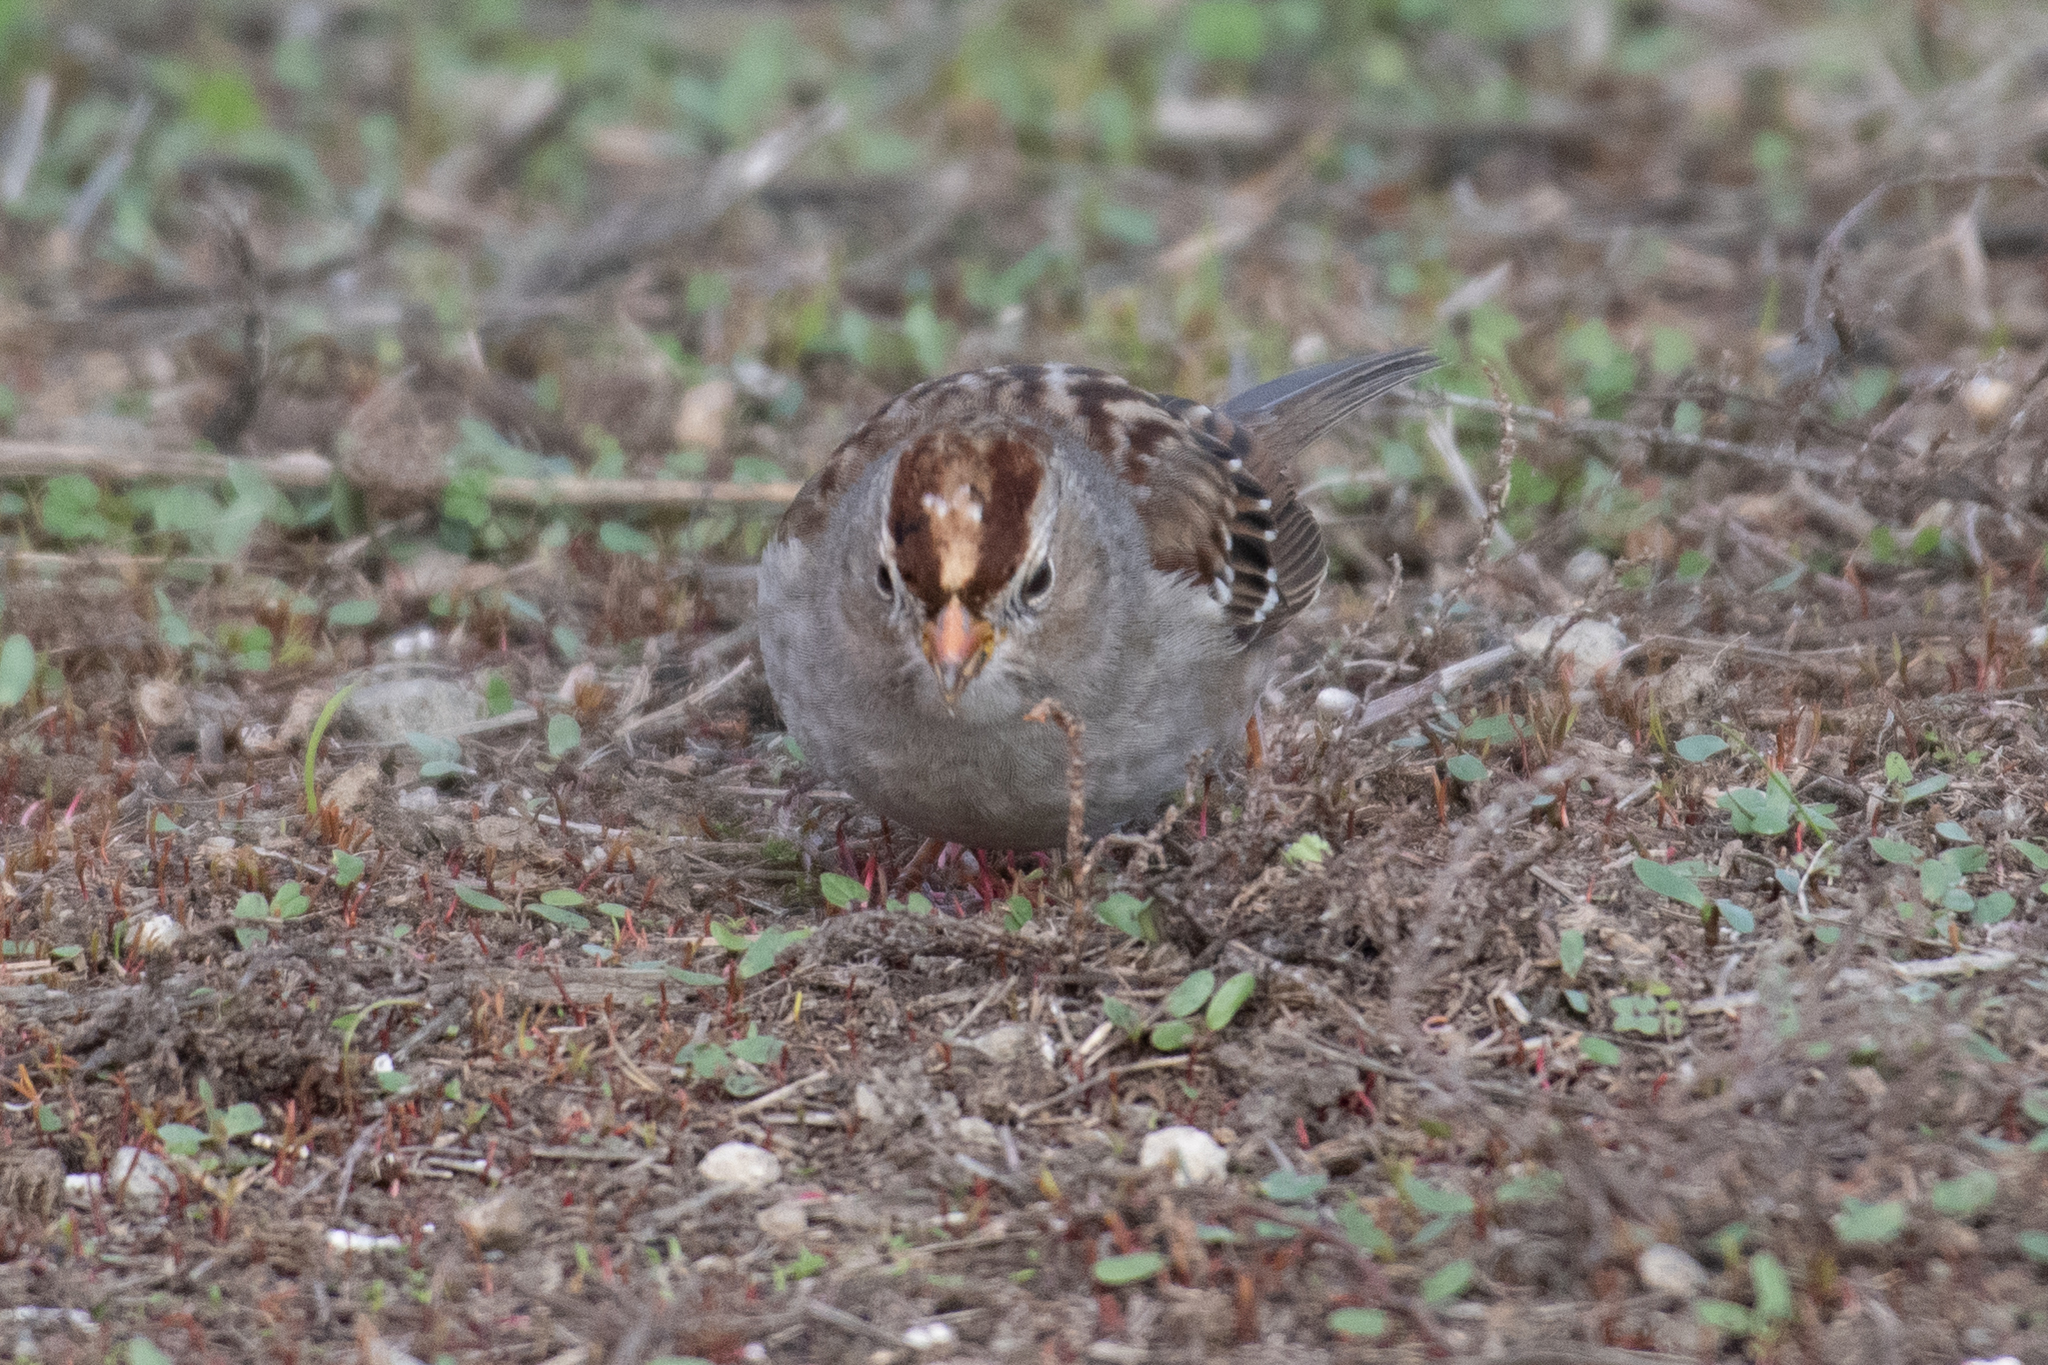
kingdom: Animalia
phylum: Chordata
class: Aves
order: Passeriformes
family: Passerellidae
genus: Zonotrichia
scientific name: Zonotrichia leucophrys
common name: White-crowned sparrow
